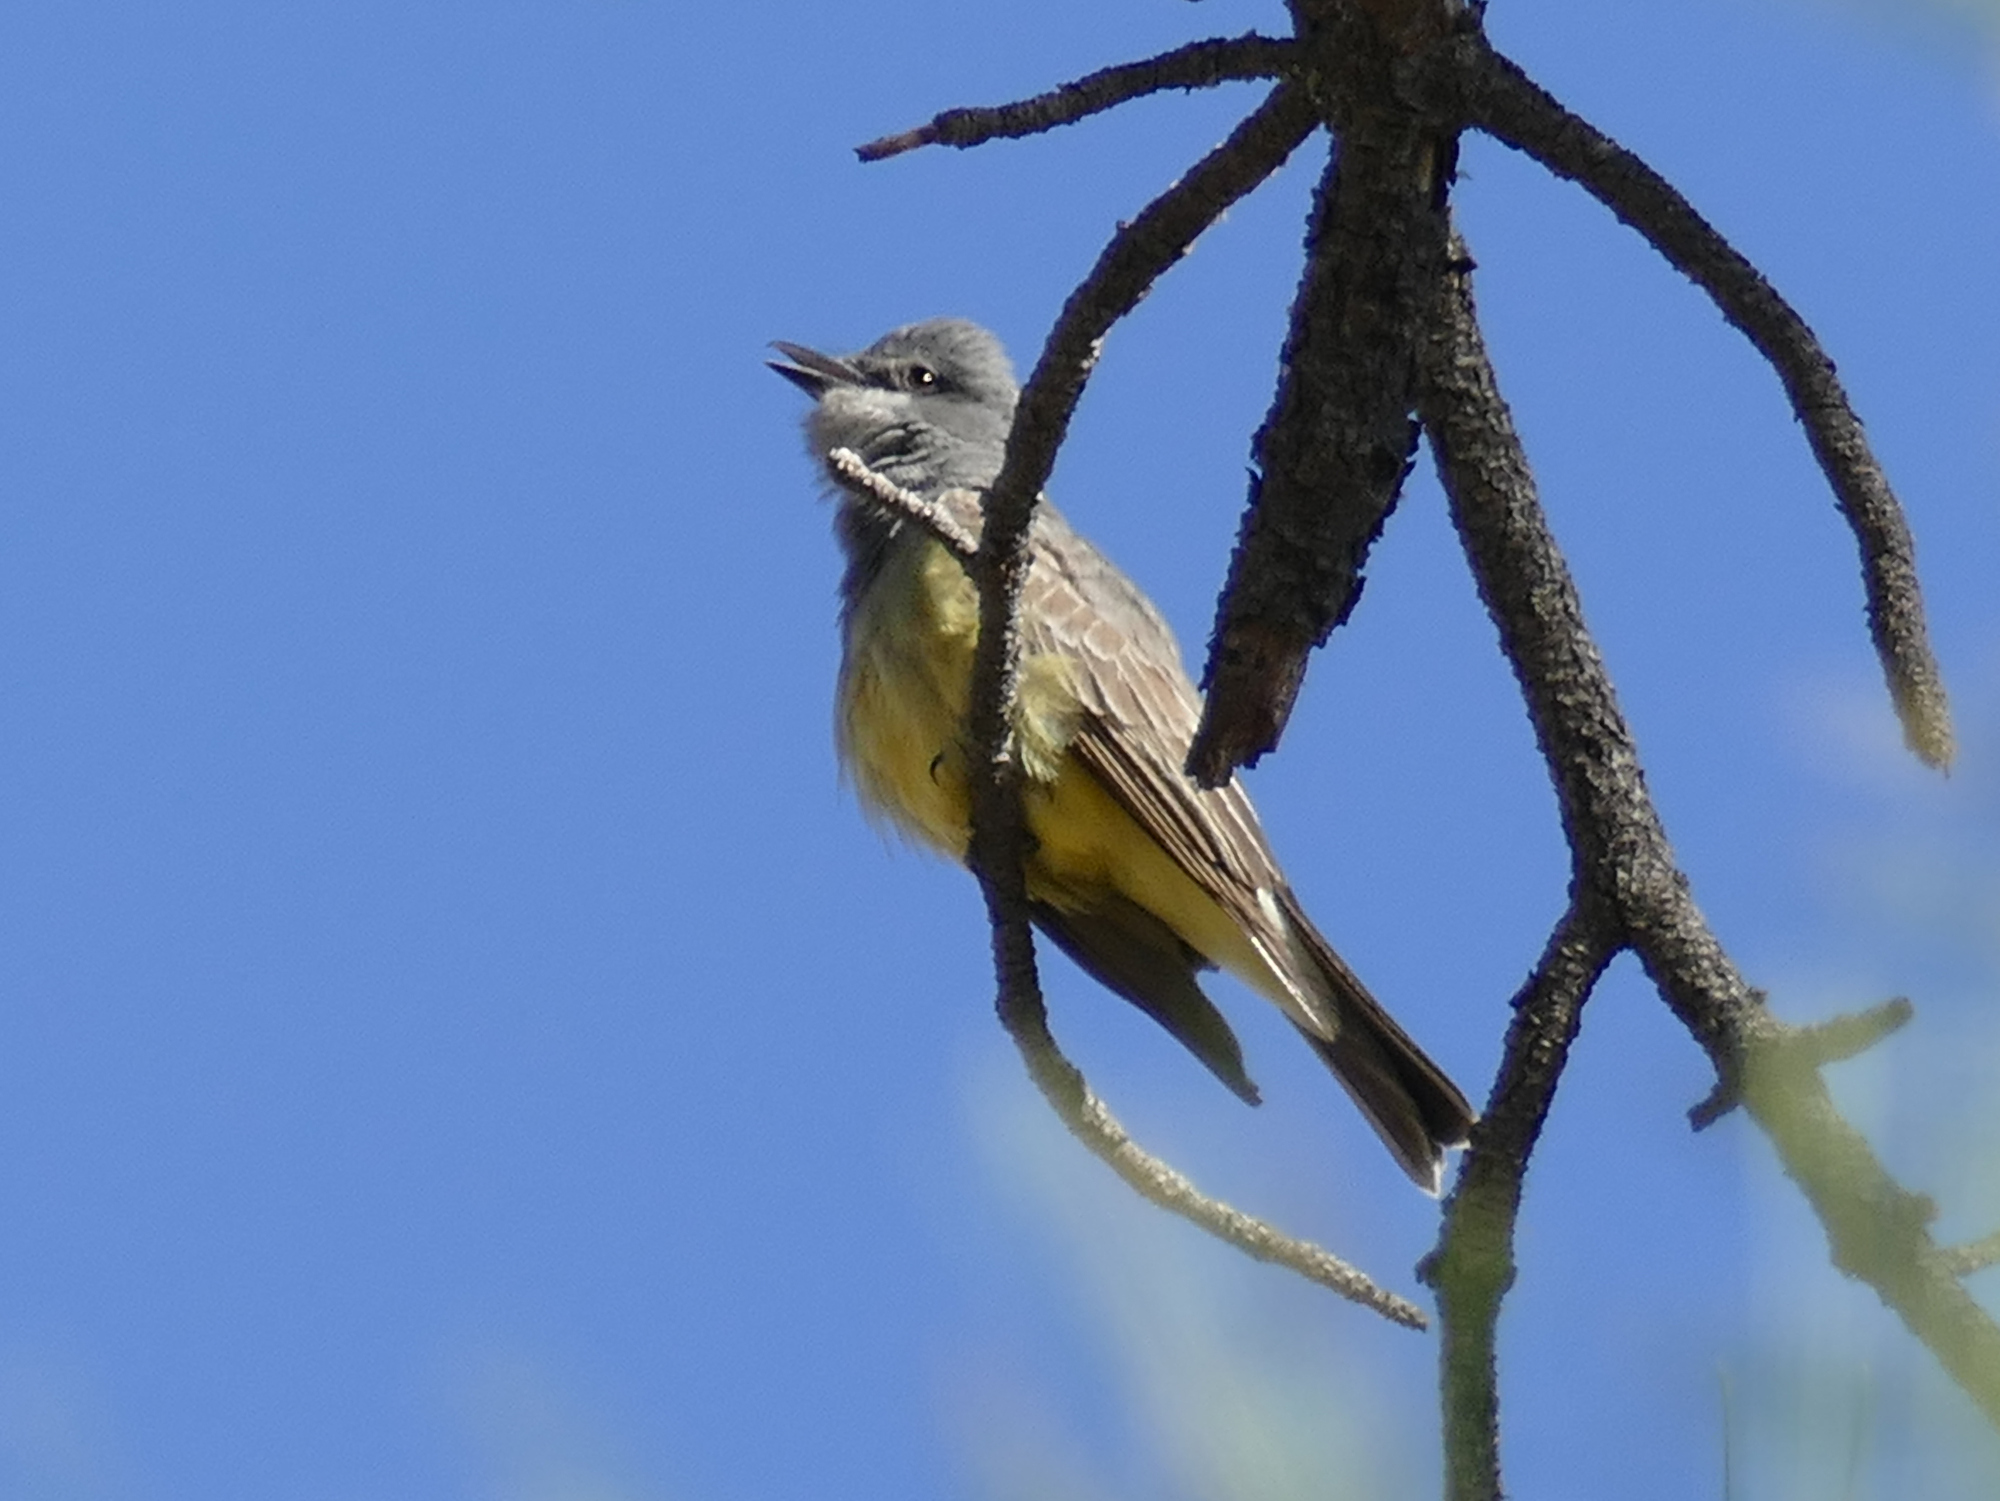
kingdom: Animalia
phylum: Chordata
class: Aves
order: Passeriformes
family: Tyrannidae
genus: Tyrannus
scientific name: Tyrannus vociferans
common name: Cassin's kingbird
